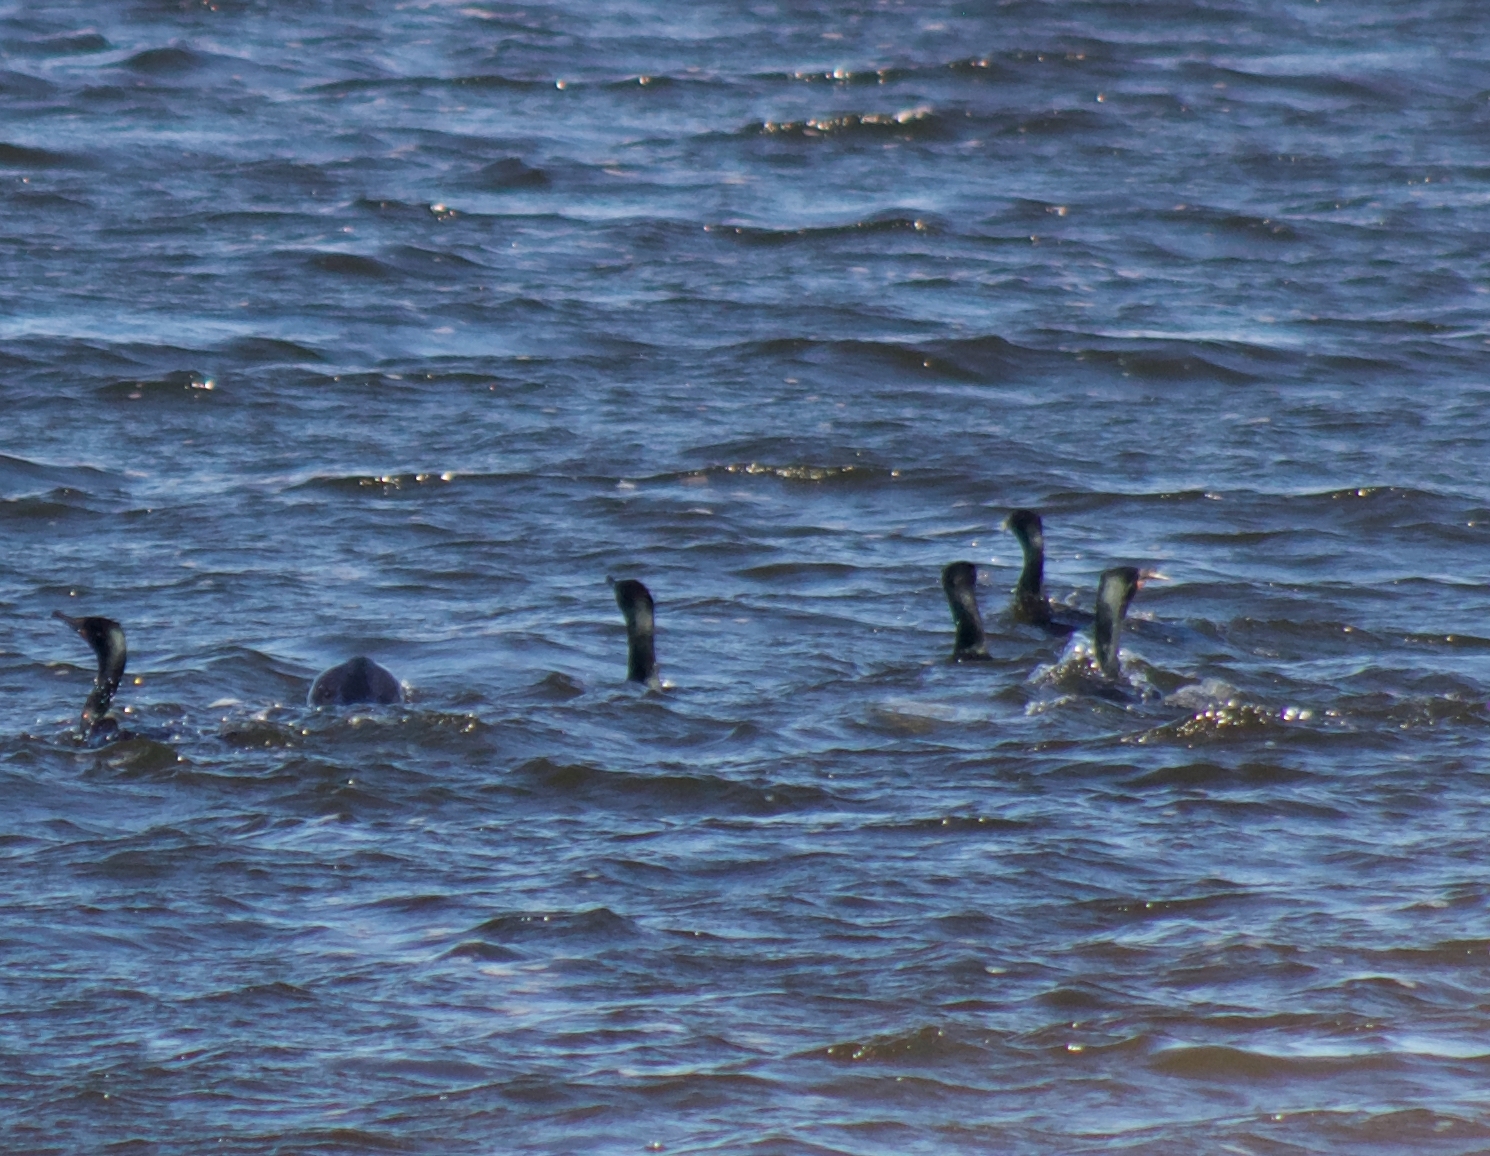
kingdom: Animalia
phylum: Chordata
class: Aves
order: Suliformes
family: Phalacrocoracidae
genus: Phalacrocorax
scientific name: Phalacrocorax auritus
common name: Double-crested cormorant
